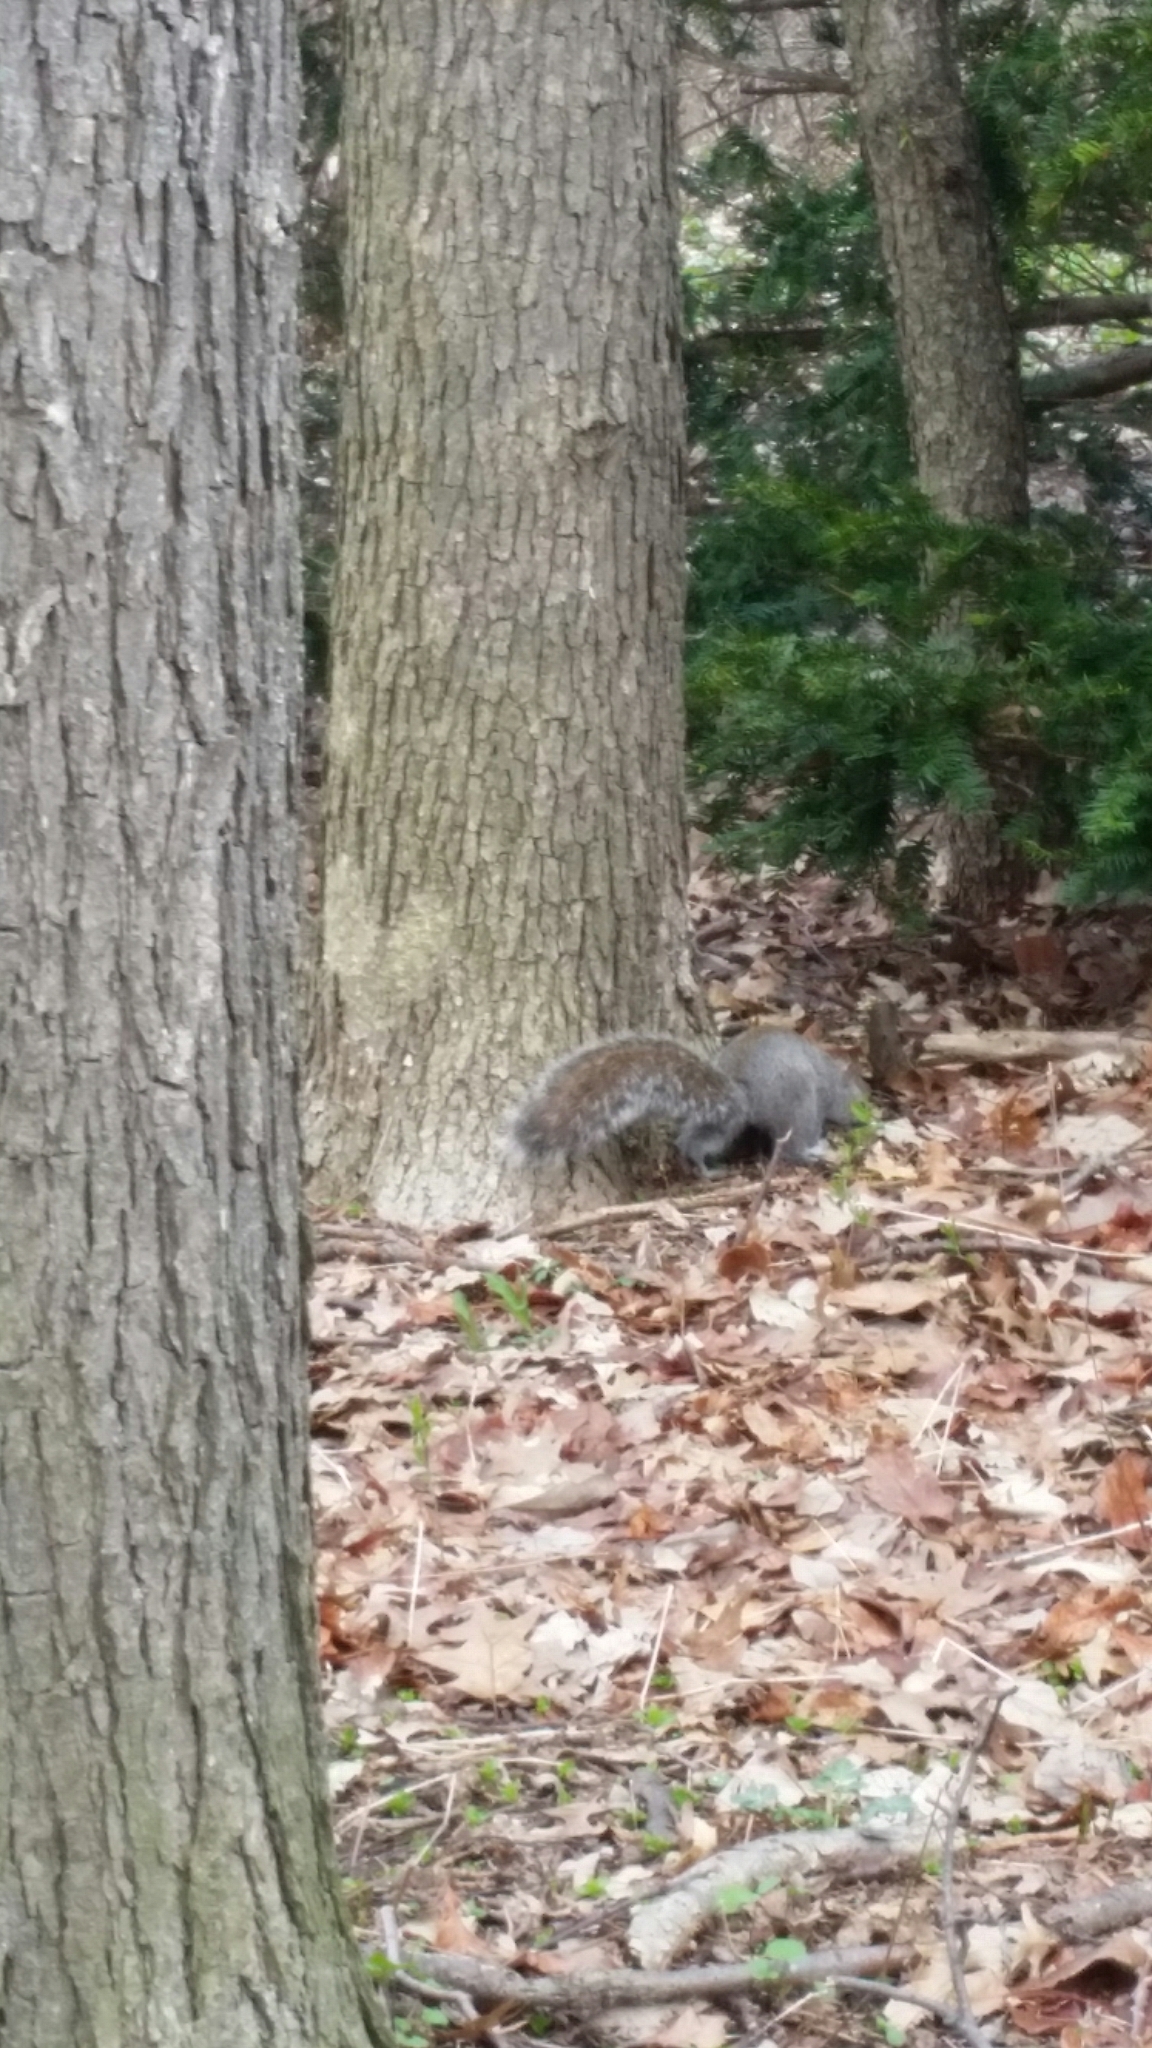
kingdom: Animalia
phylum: Chordata
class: Mammalia
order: Rodentia
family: Sciuridae
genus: Sciurus
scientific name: Sciurus carolinensis
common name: Eastern gray squirrel
